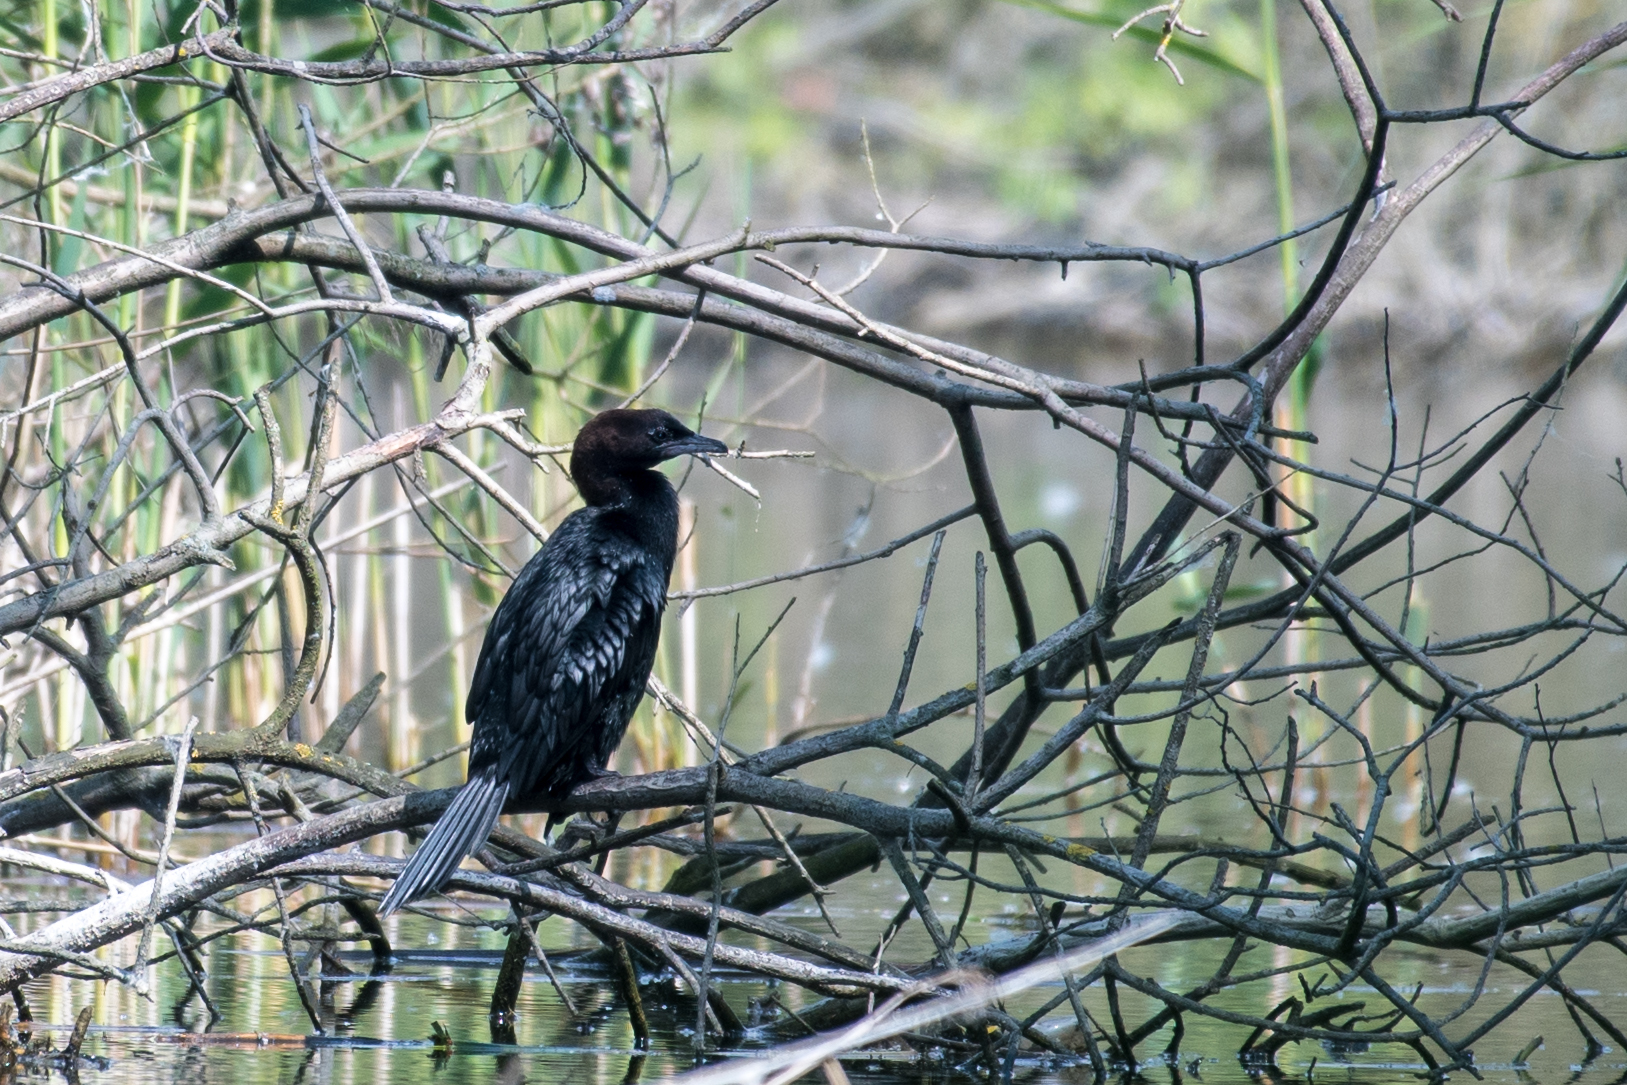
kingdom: Animalia
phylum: Chordata
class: Aves
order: Suliformes
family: Phalacrocoracidae
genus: Microcarbo
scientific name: Microcarbo pygmaeus
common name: Pygmy cormorant
